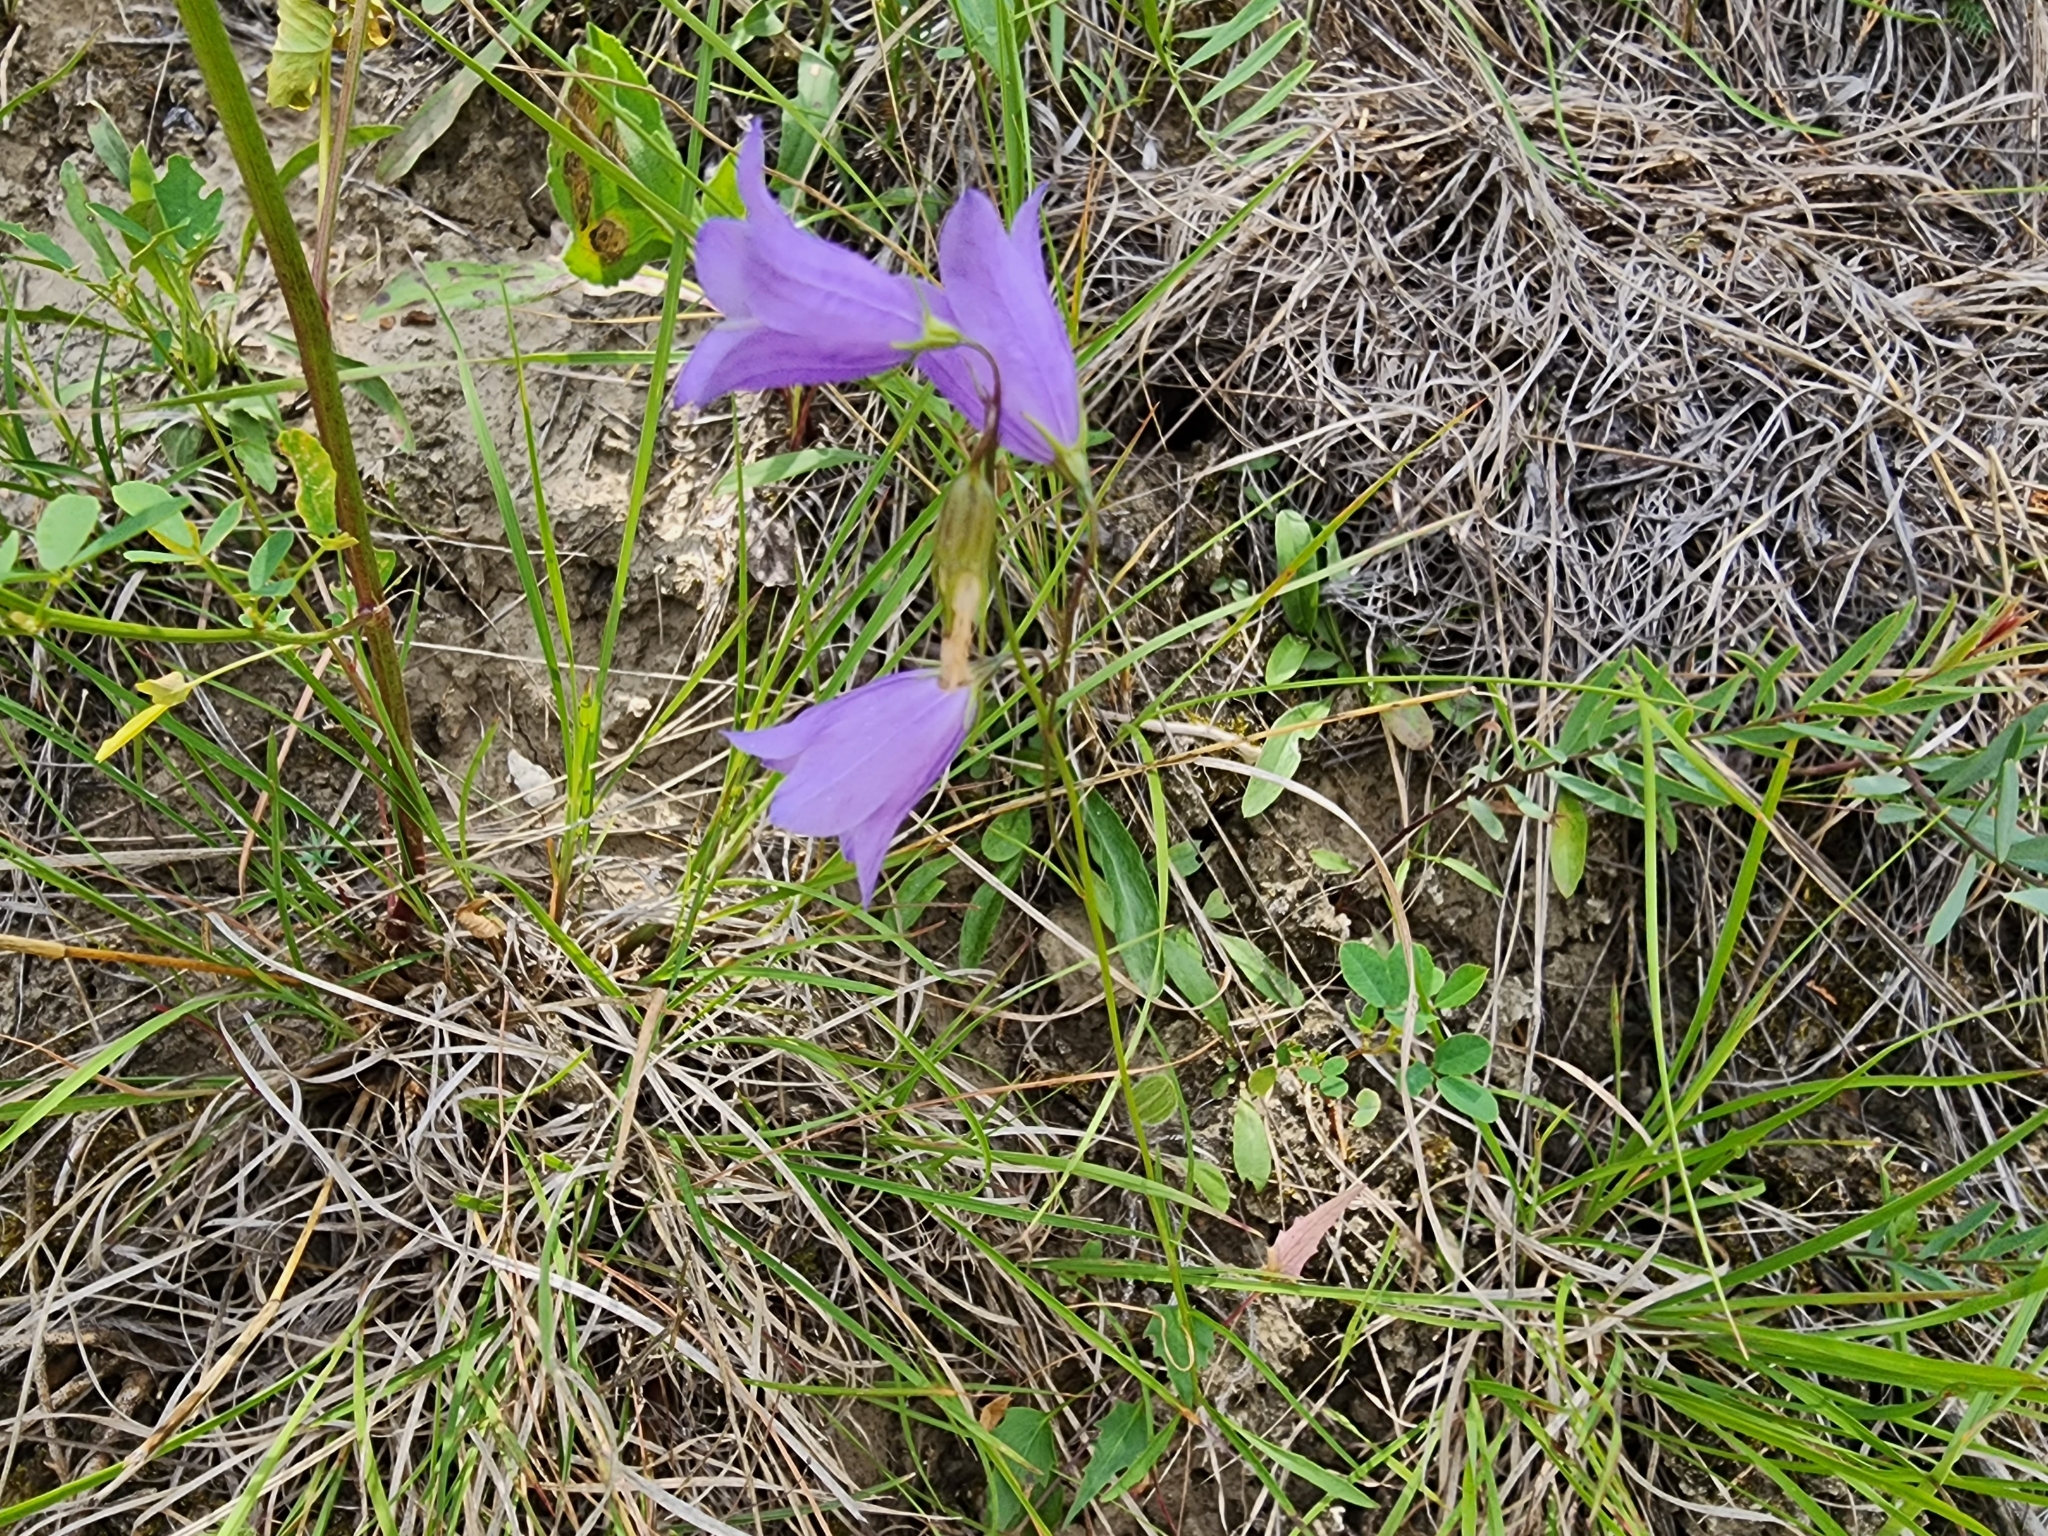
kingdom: Plantae
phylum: Tracheophyta
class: Magnoliopsida
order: Asterales
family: Campanulaceae
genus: Campanula
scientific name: Campanula petiolata
